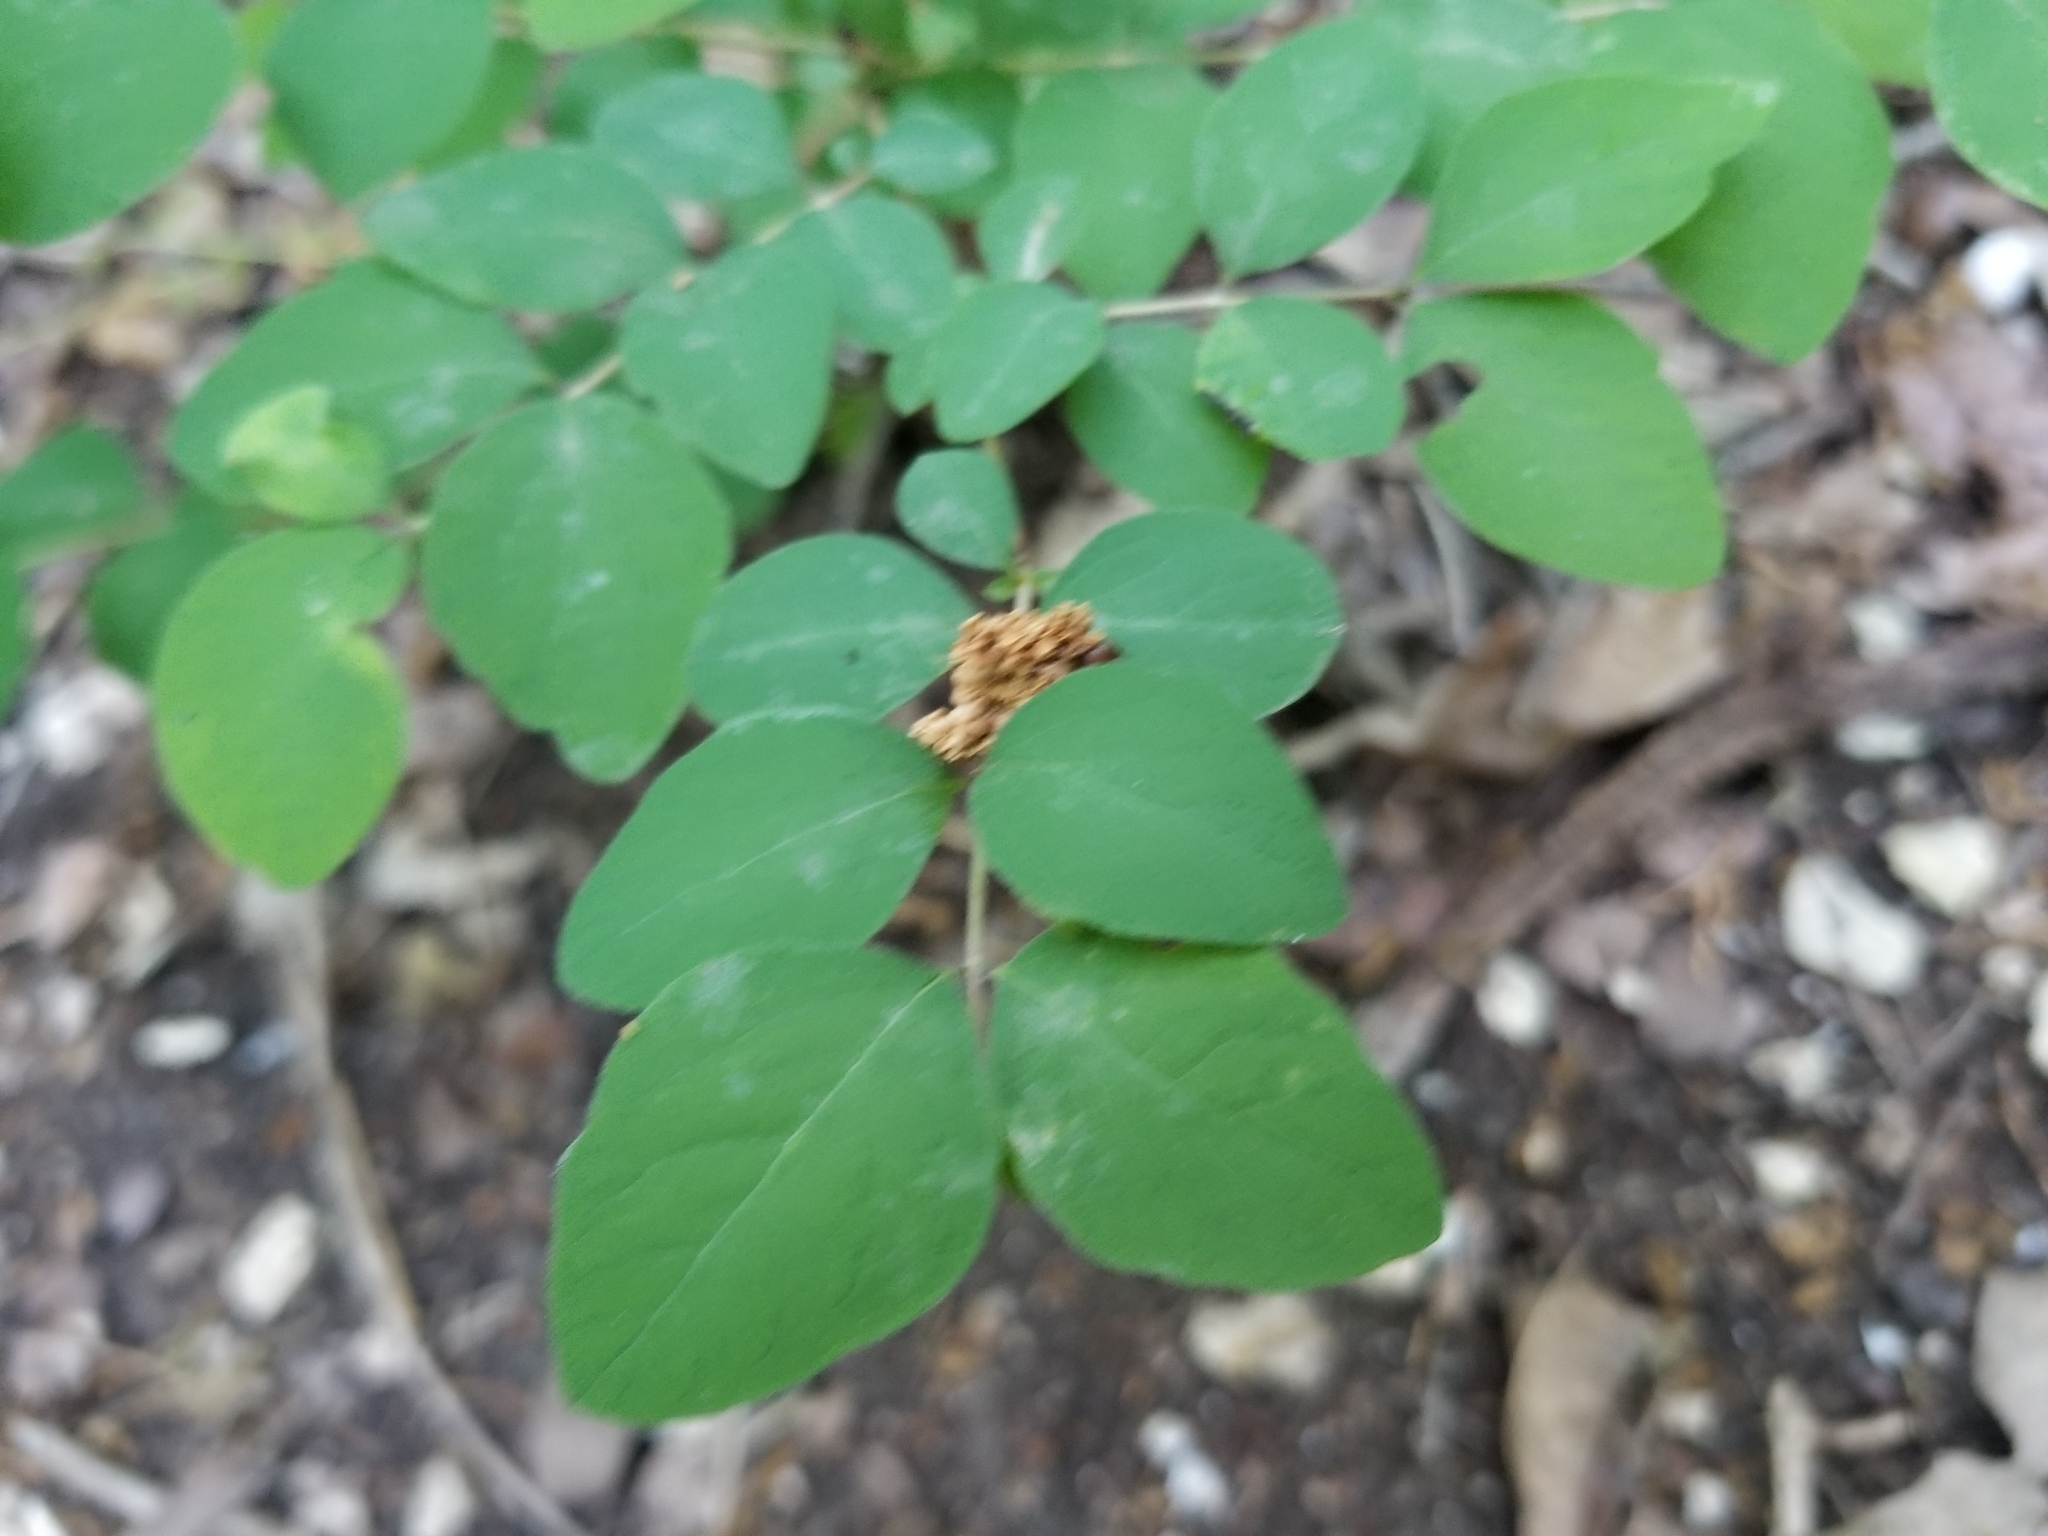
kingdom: Plantae
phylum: Tracheophyta
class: Magnoliopsida
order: Dipsacales
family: Caprifoliaceae
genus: Symphoricarpos
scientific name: Symphoricarpos orbiculatus
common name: Coralberry
